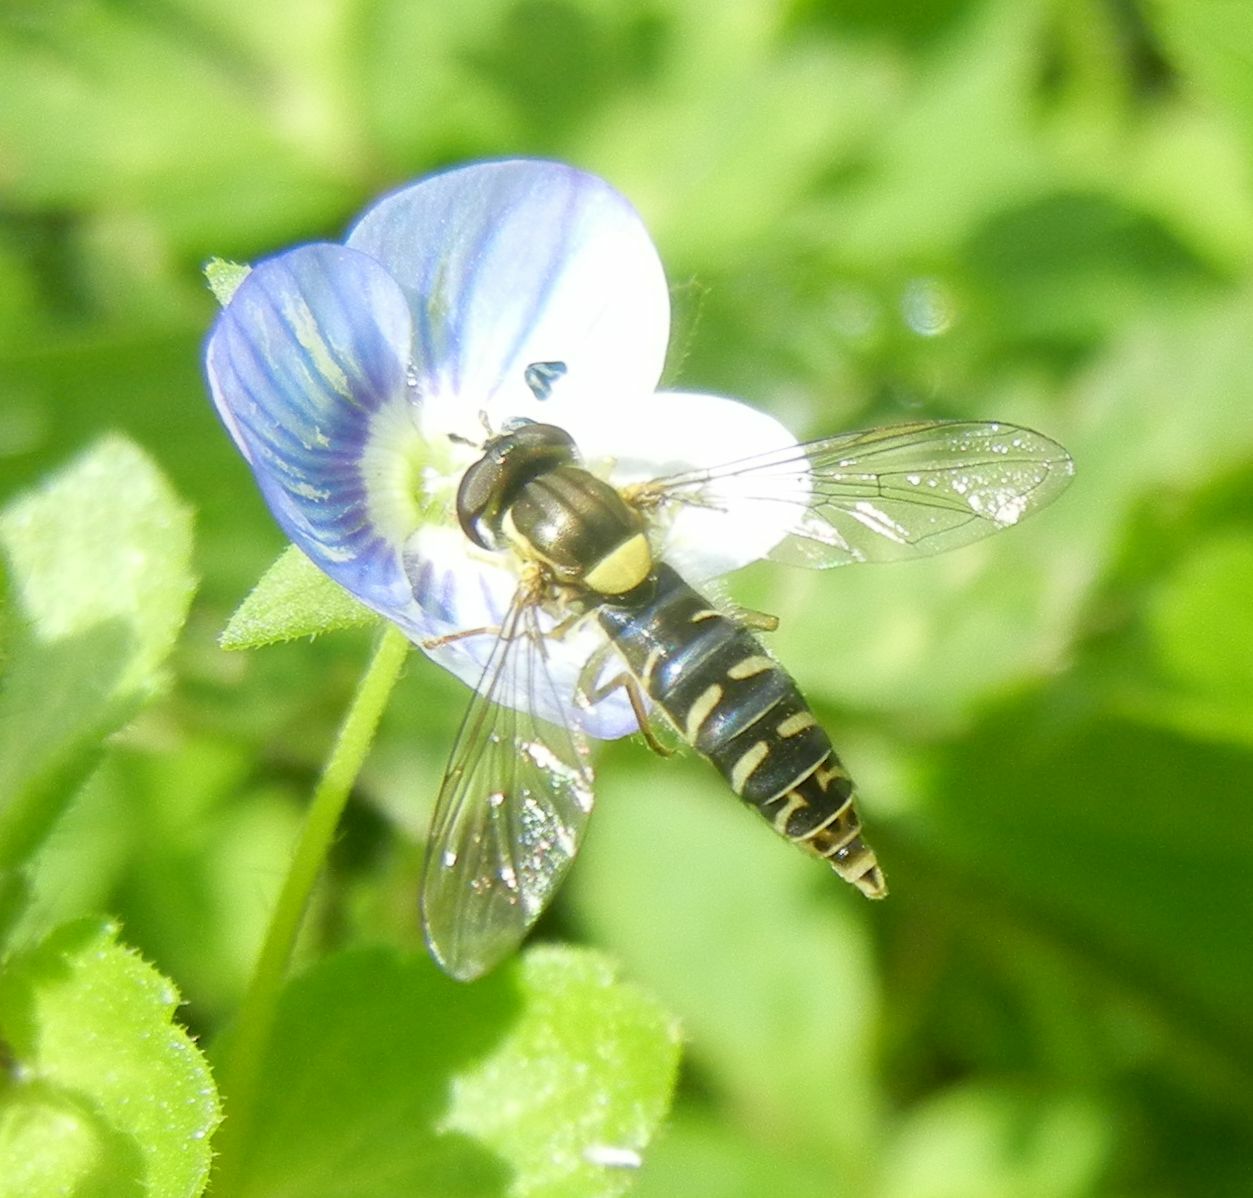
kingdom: Animalia
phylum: Arthropoda
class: Insecta
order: Diptera
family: Syrphidae
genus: Sphaerophoria
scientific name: Sphaerophoria
